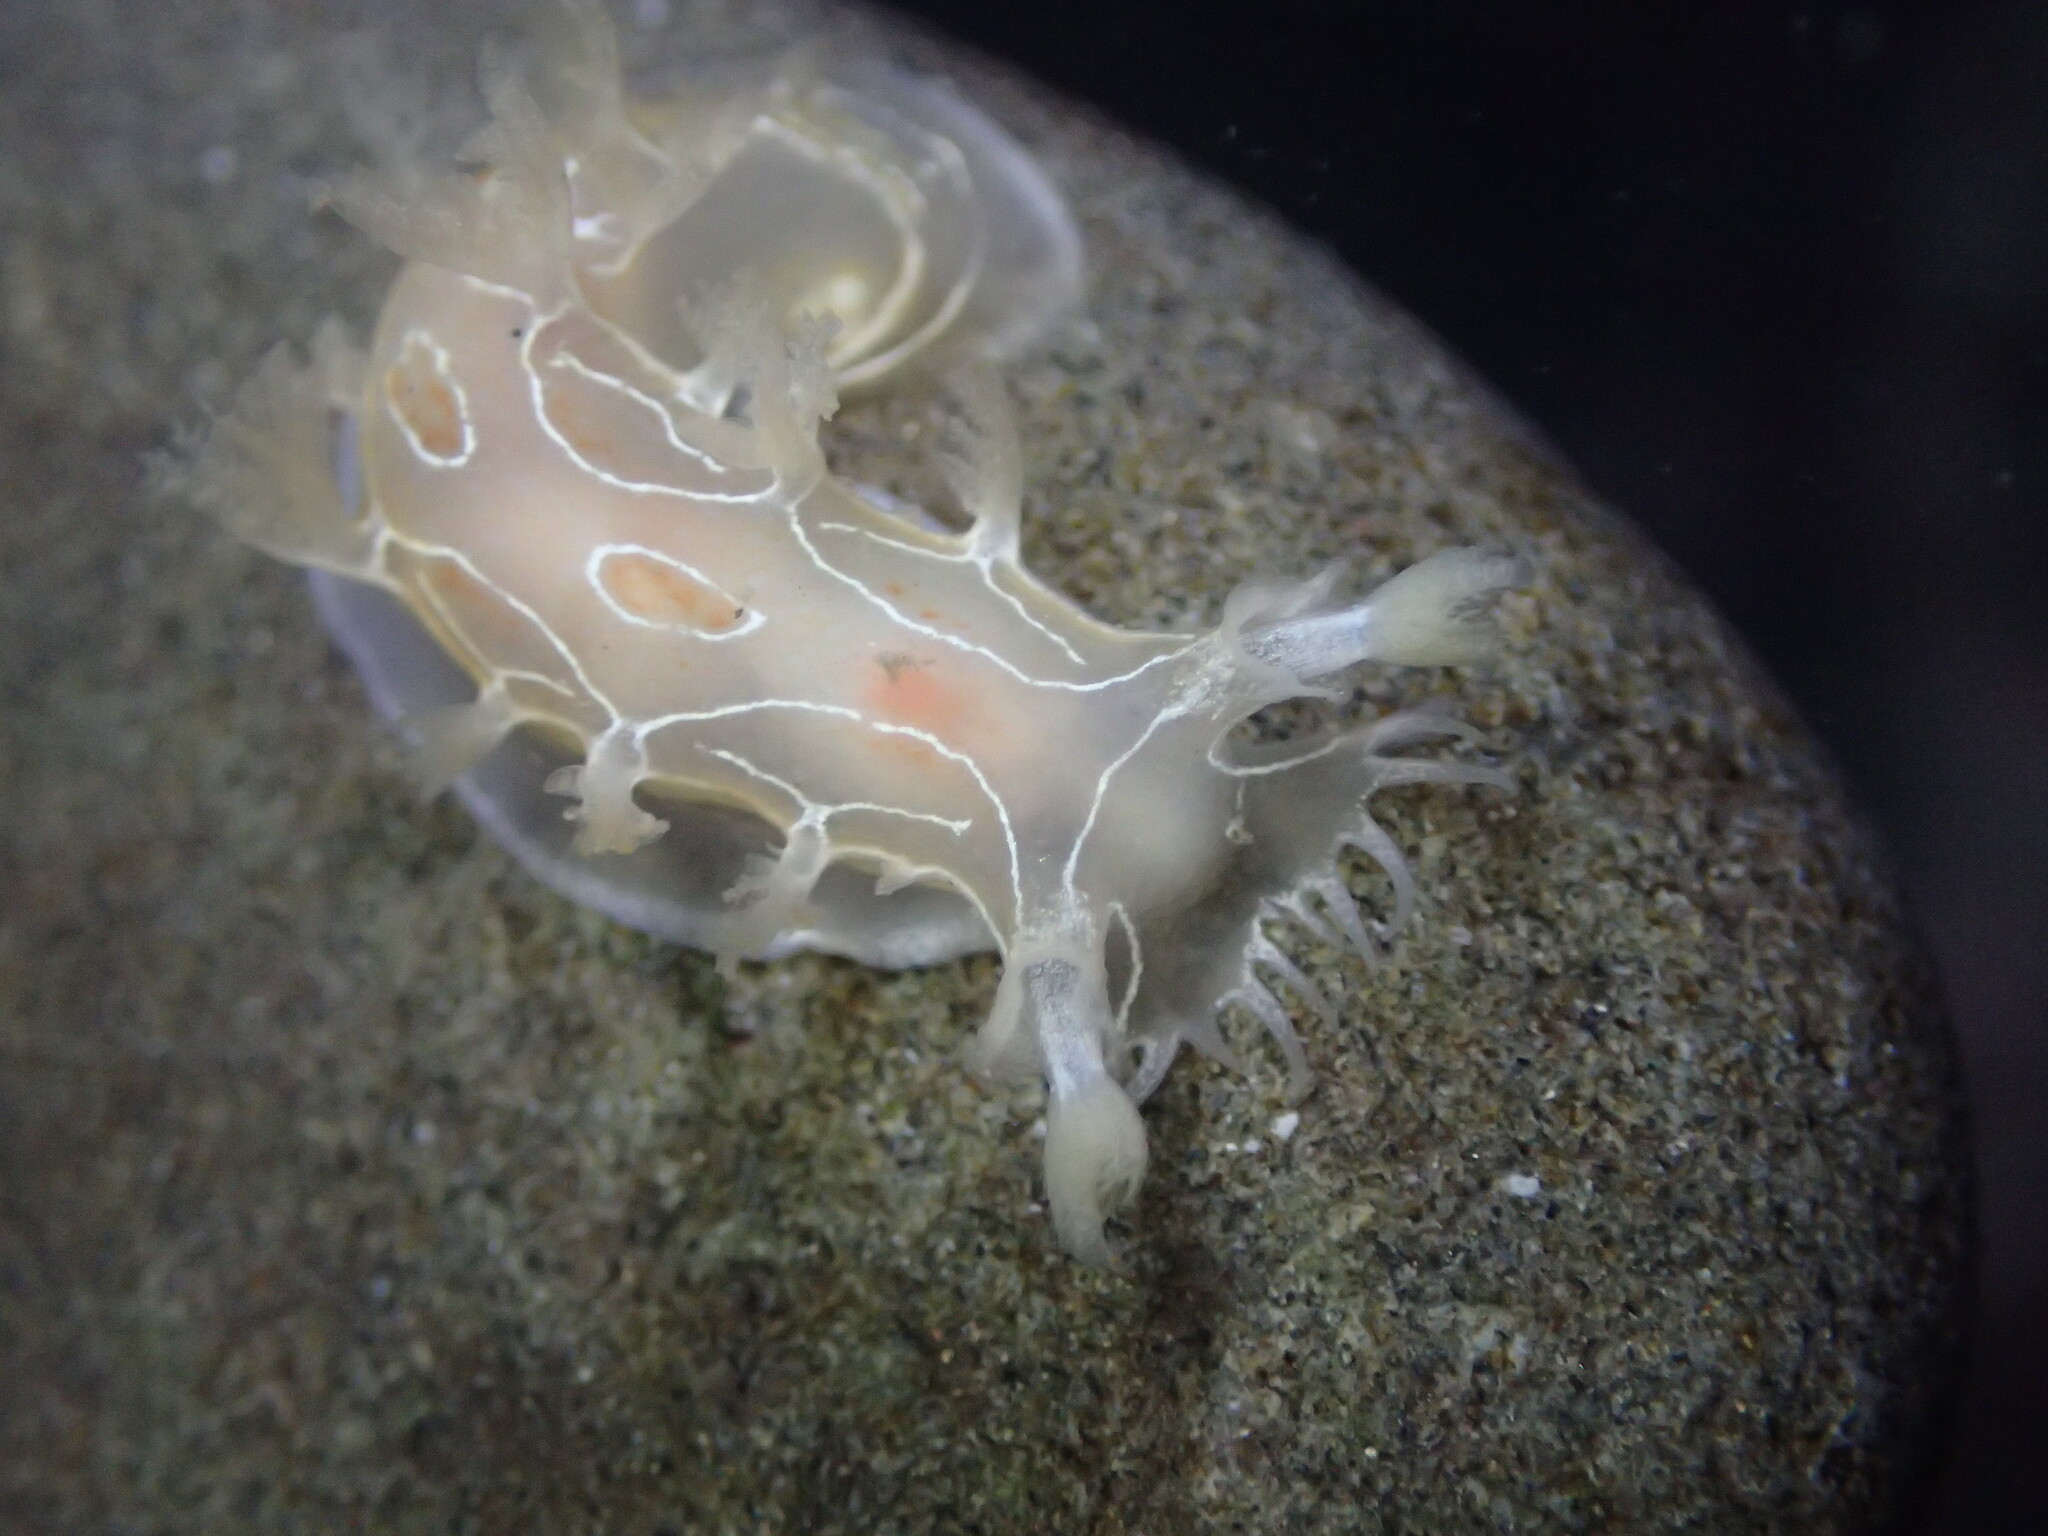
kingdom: Animalia
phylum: Mollusca
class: Gastropoda
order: Nudibranchia
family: Tritoniidae
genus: Tritonia
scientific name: Tritonia festiva
